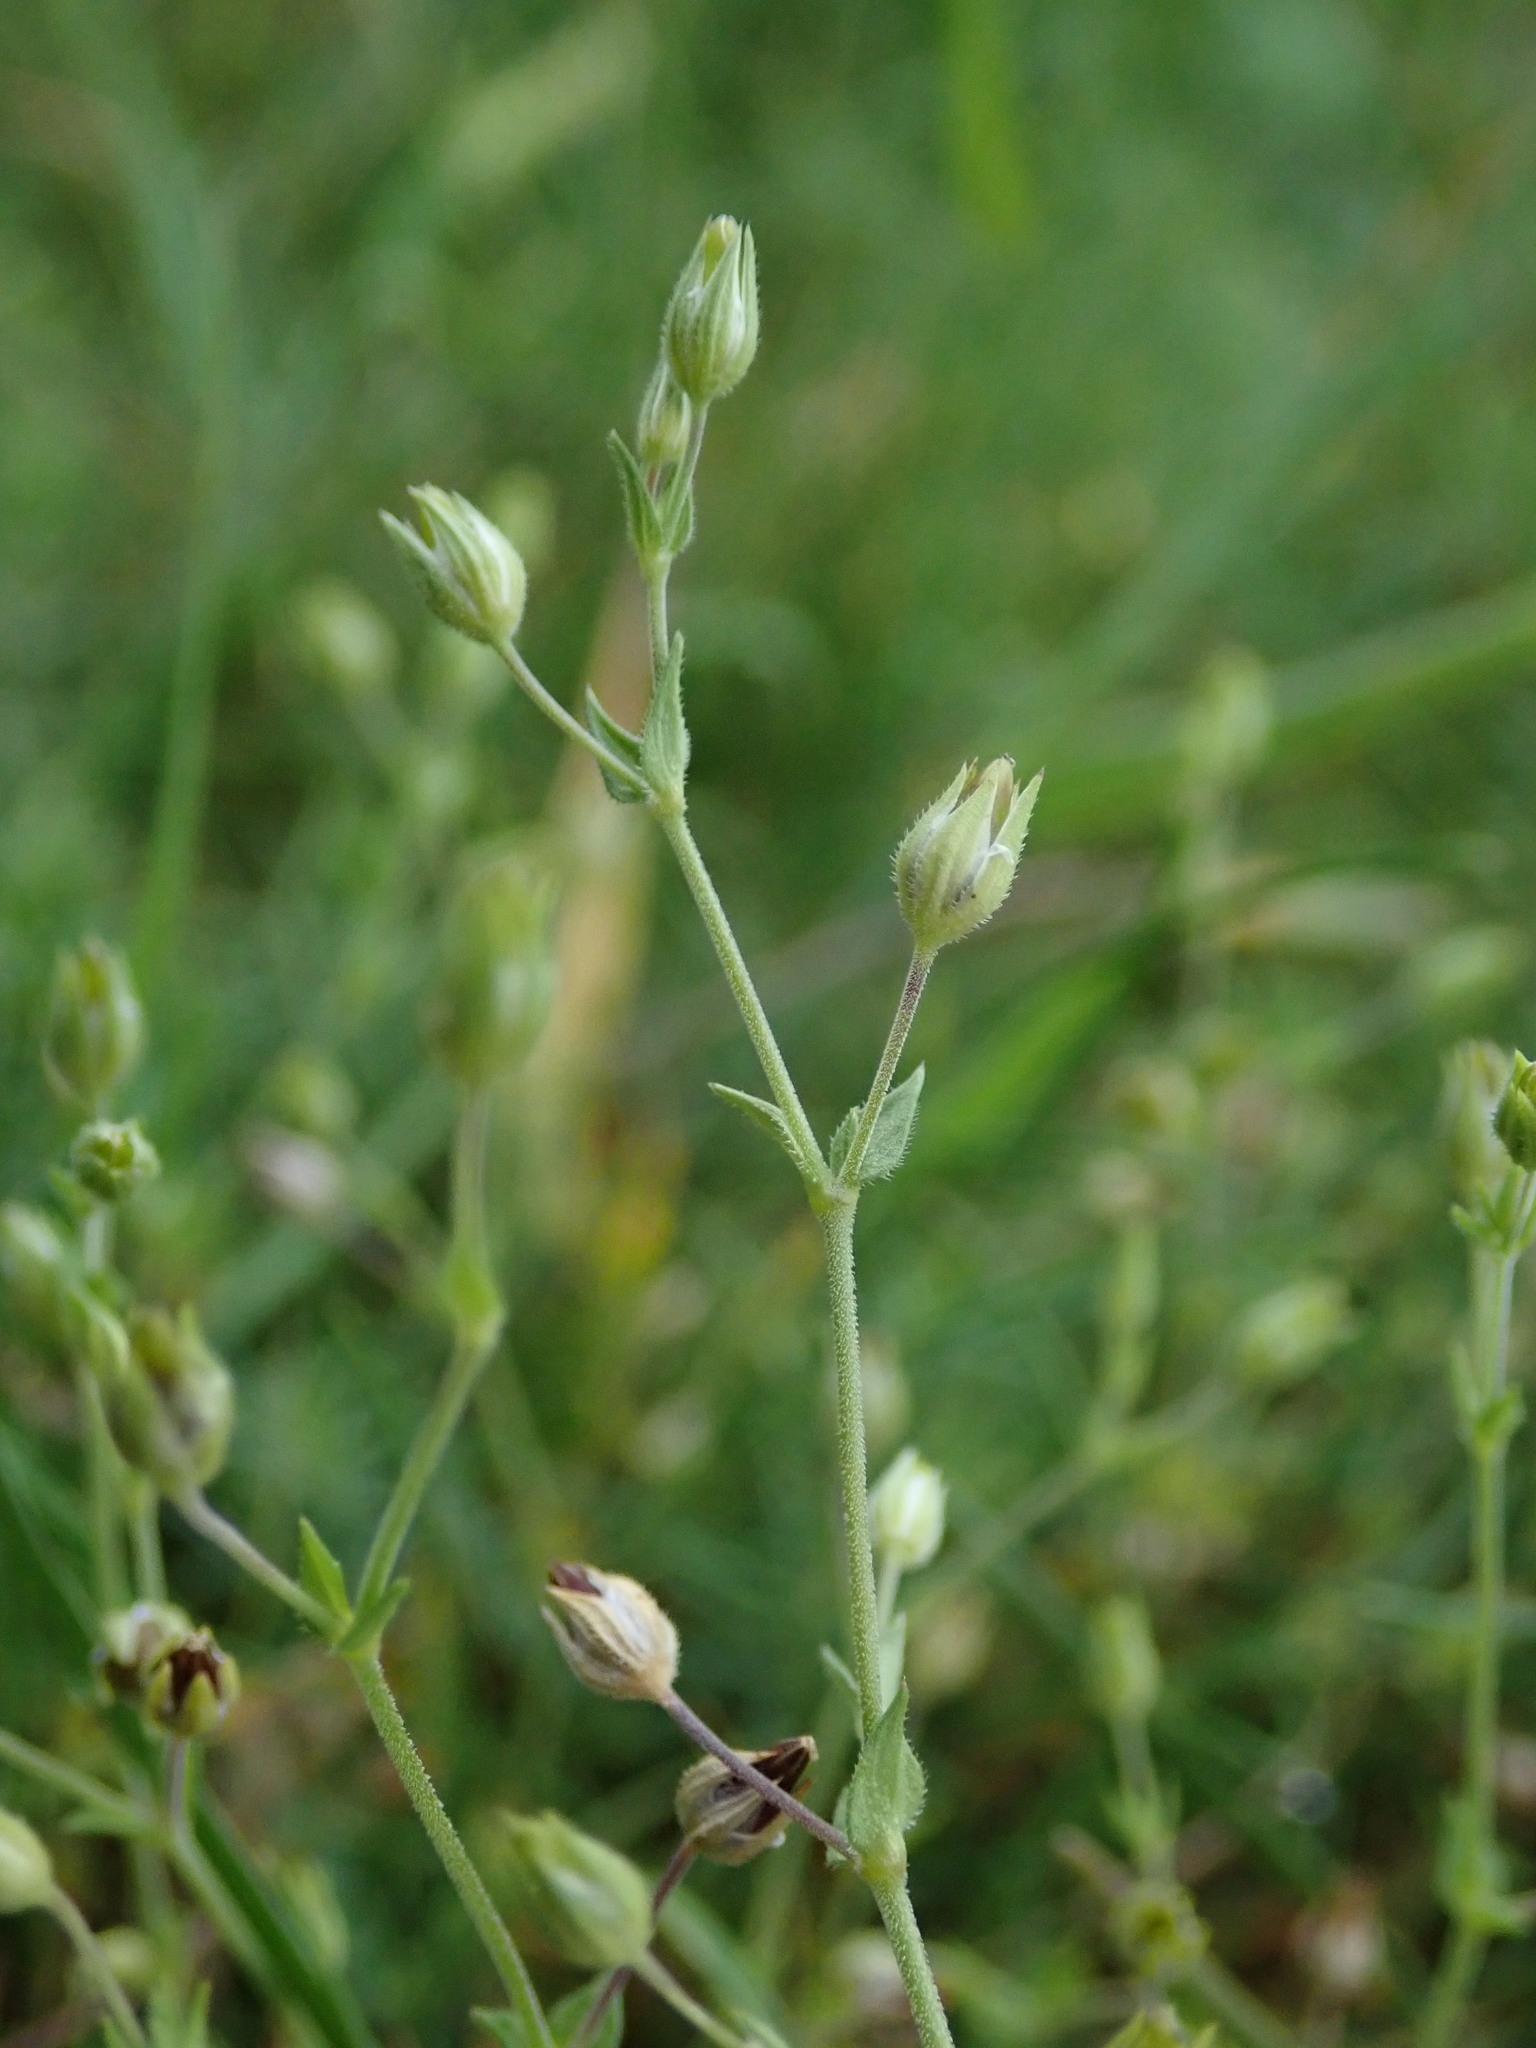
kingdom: Plantae
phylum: Tracheophyta
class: Magnoliopsida
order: Caryophyllales
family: Caryophyllaceae
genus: Arenaria
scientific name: Arenaria serpyllifolia
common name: Thyme-leaved sandwort
